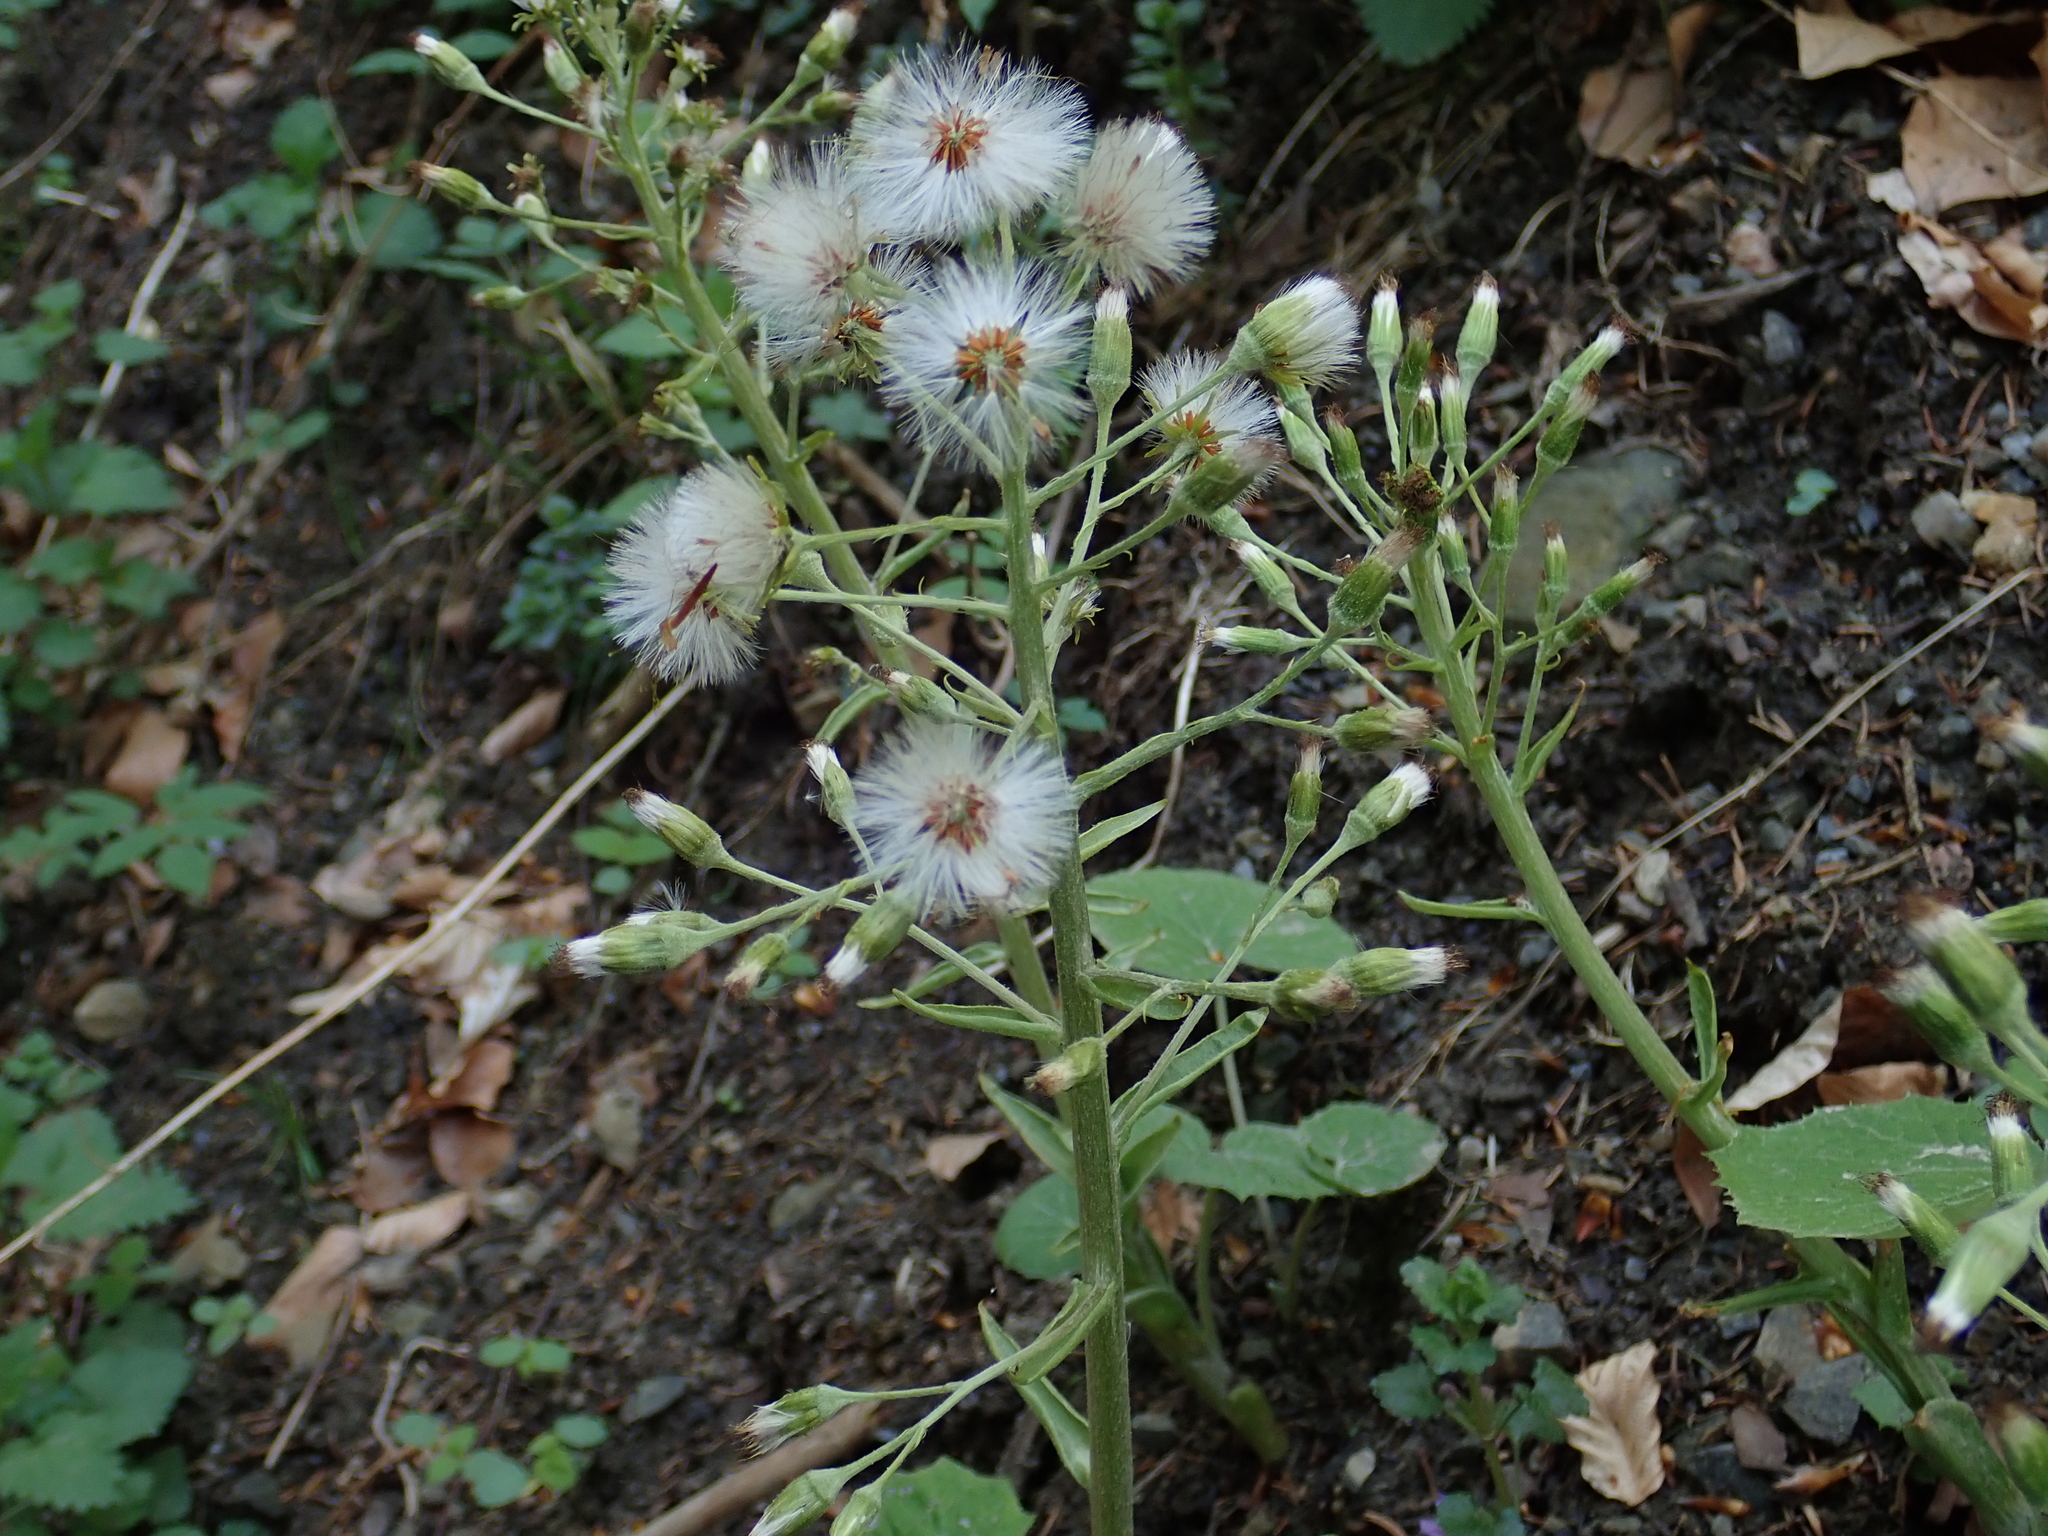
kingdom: Plantae
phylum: Tracheophyta
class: Magnoliopsida
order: Asterales
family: Asteraceae
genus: Petasites
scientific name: Petasites albus
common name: White butterbur
